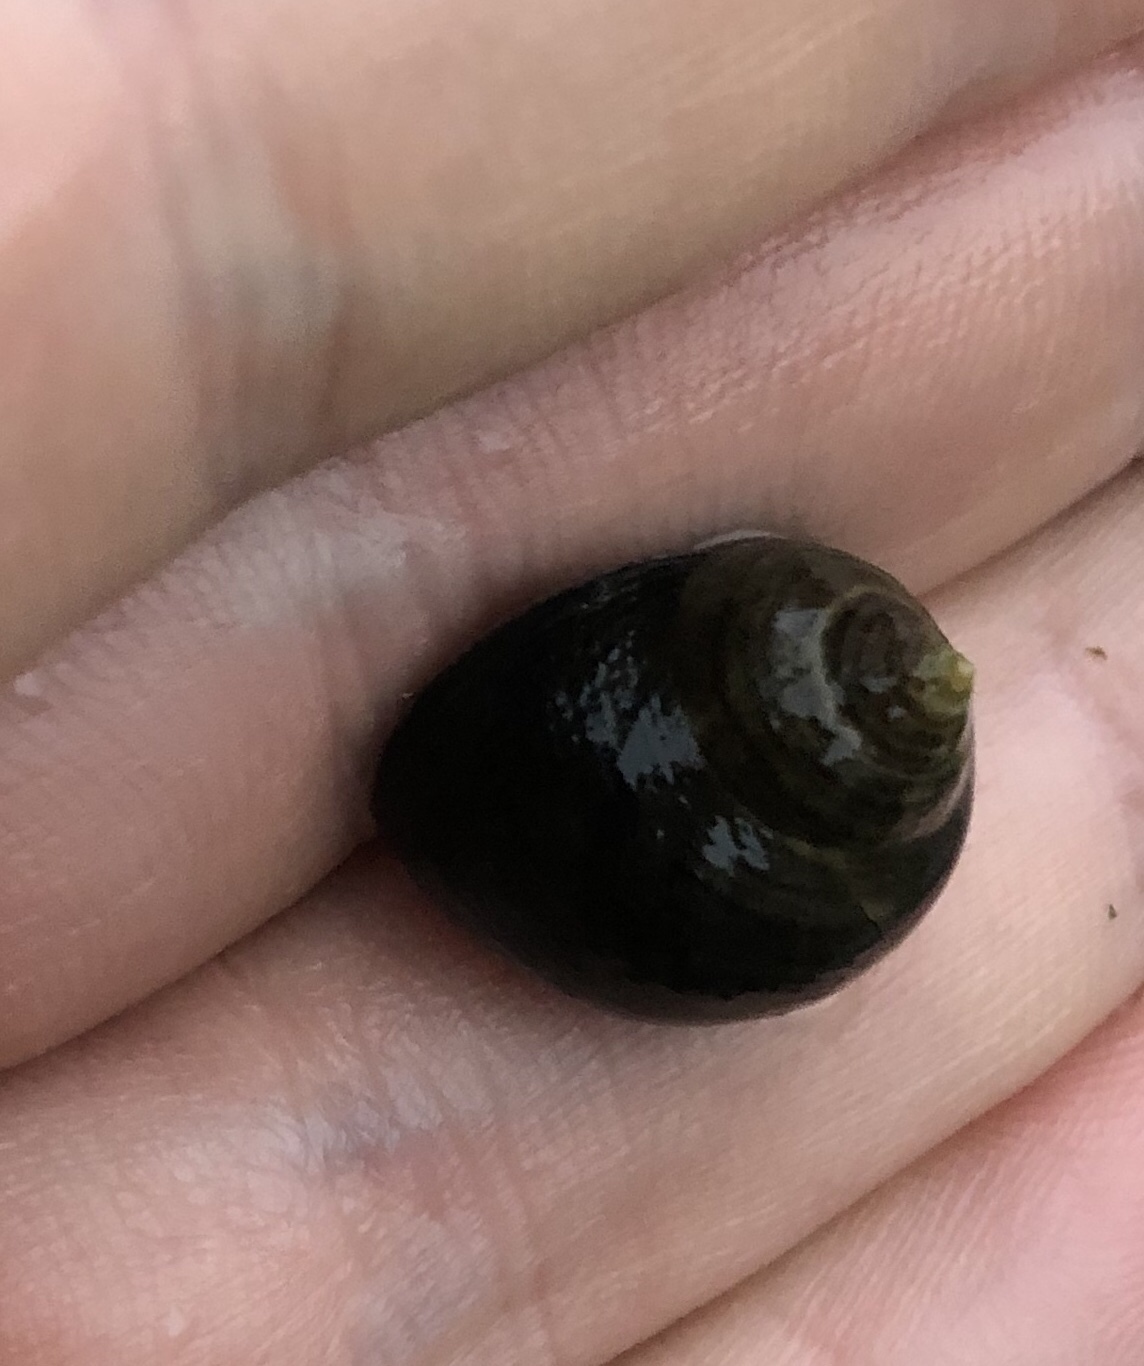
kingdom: Animalia
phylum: Mollusca
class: Gastropoda
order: Littorinimorpha
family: Littorinidae
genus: Littorina
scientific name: Littorina littorea
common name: Common periwinkle
